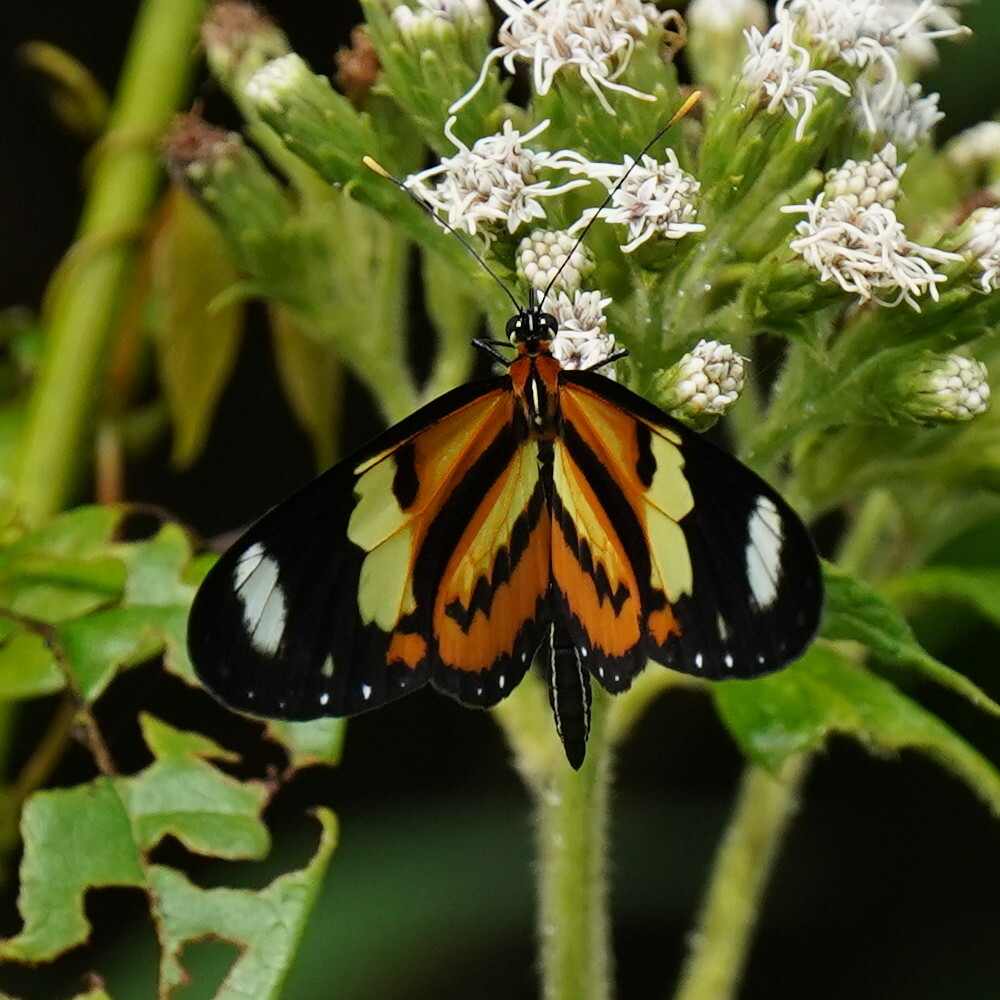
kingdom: Animalia
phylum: Arthropoda
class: Insecta
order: Lepidoptera
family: Nymphalidae
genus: Mechanitis
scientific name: Mechanitis lysimnia
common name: Lysimnia tigerwing
